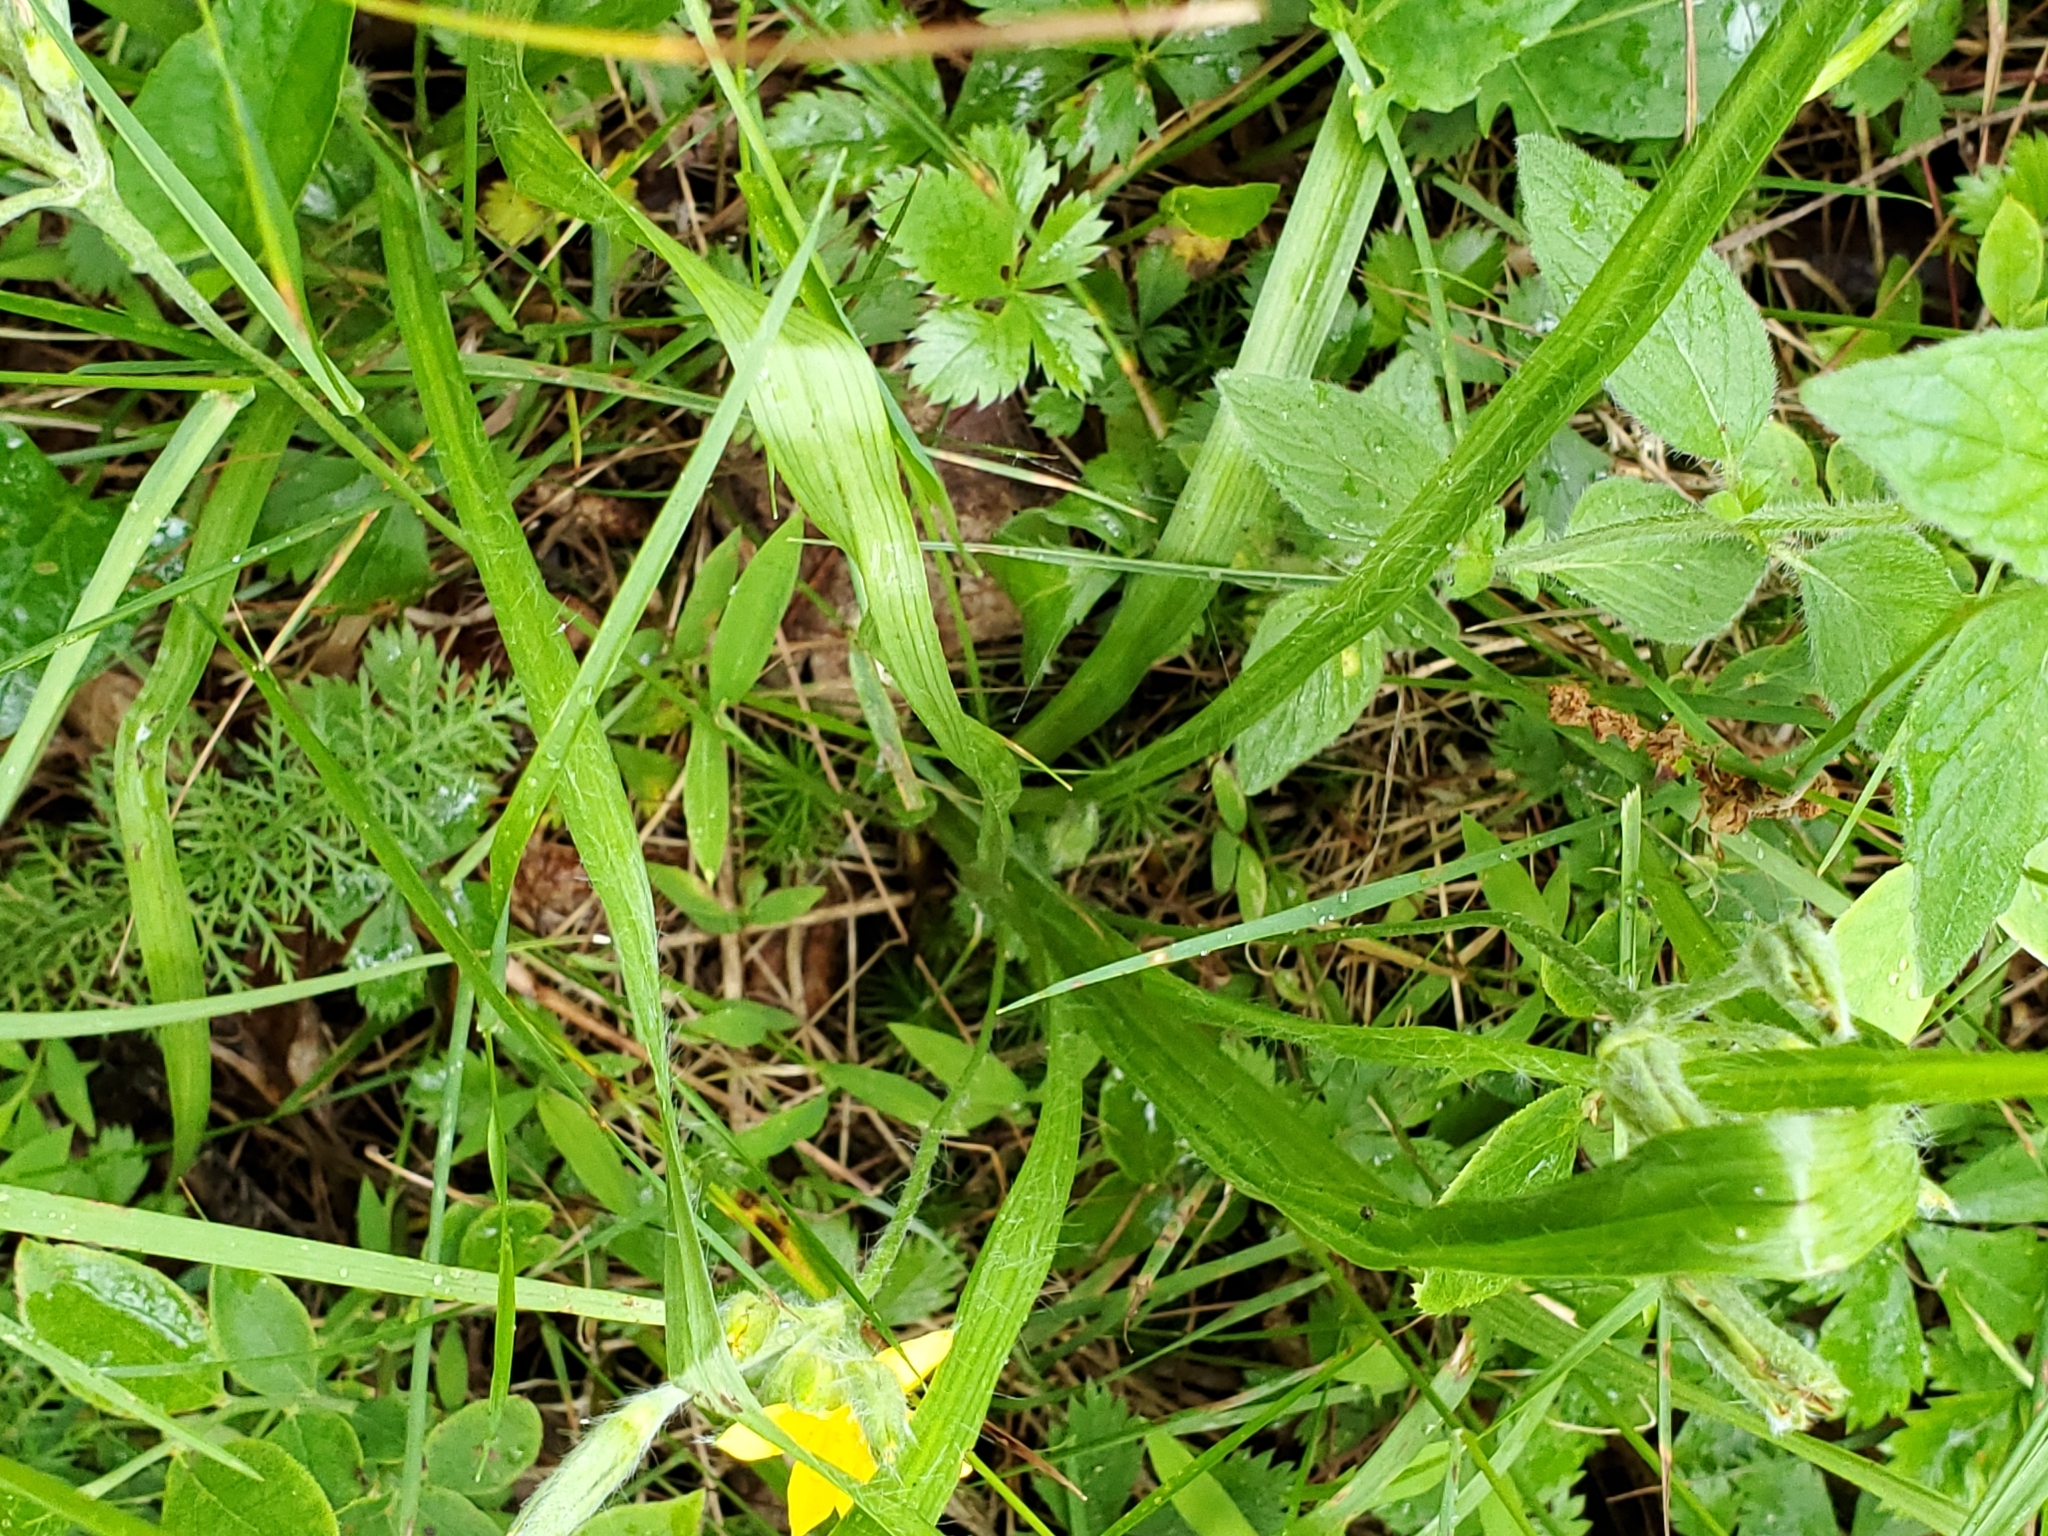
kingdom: Plantae
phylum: Tracheophyta
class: Liliopsida
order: Asparagales
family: Hypoxidaceae
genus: Hypoxis
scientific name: Hypoxis hirsuta
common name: Common goldstar
